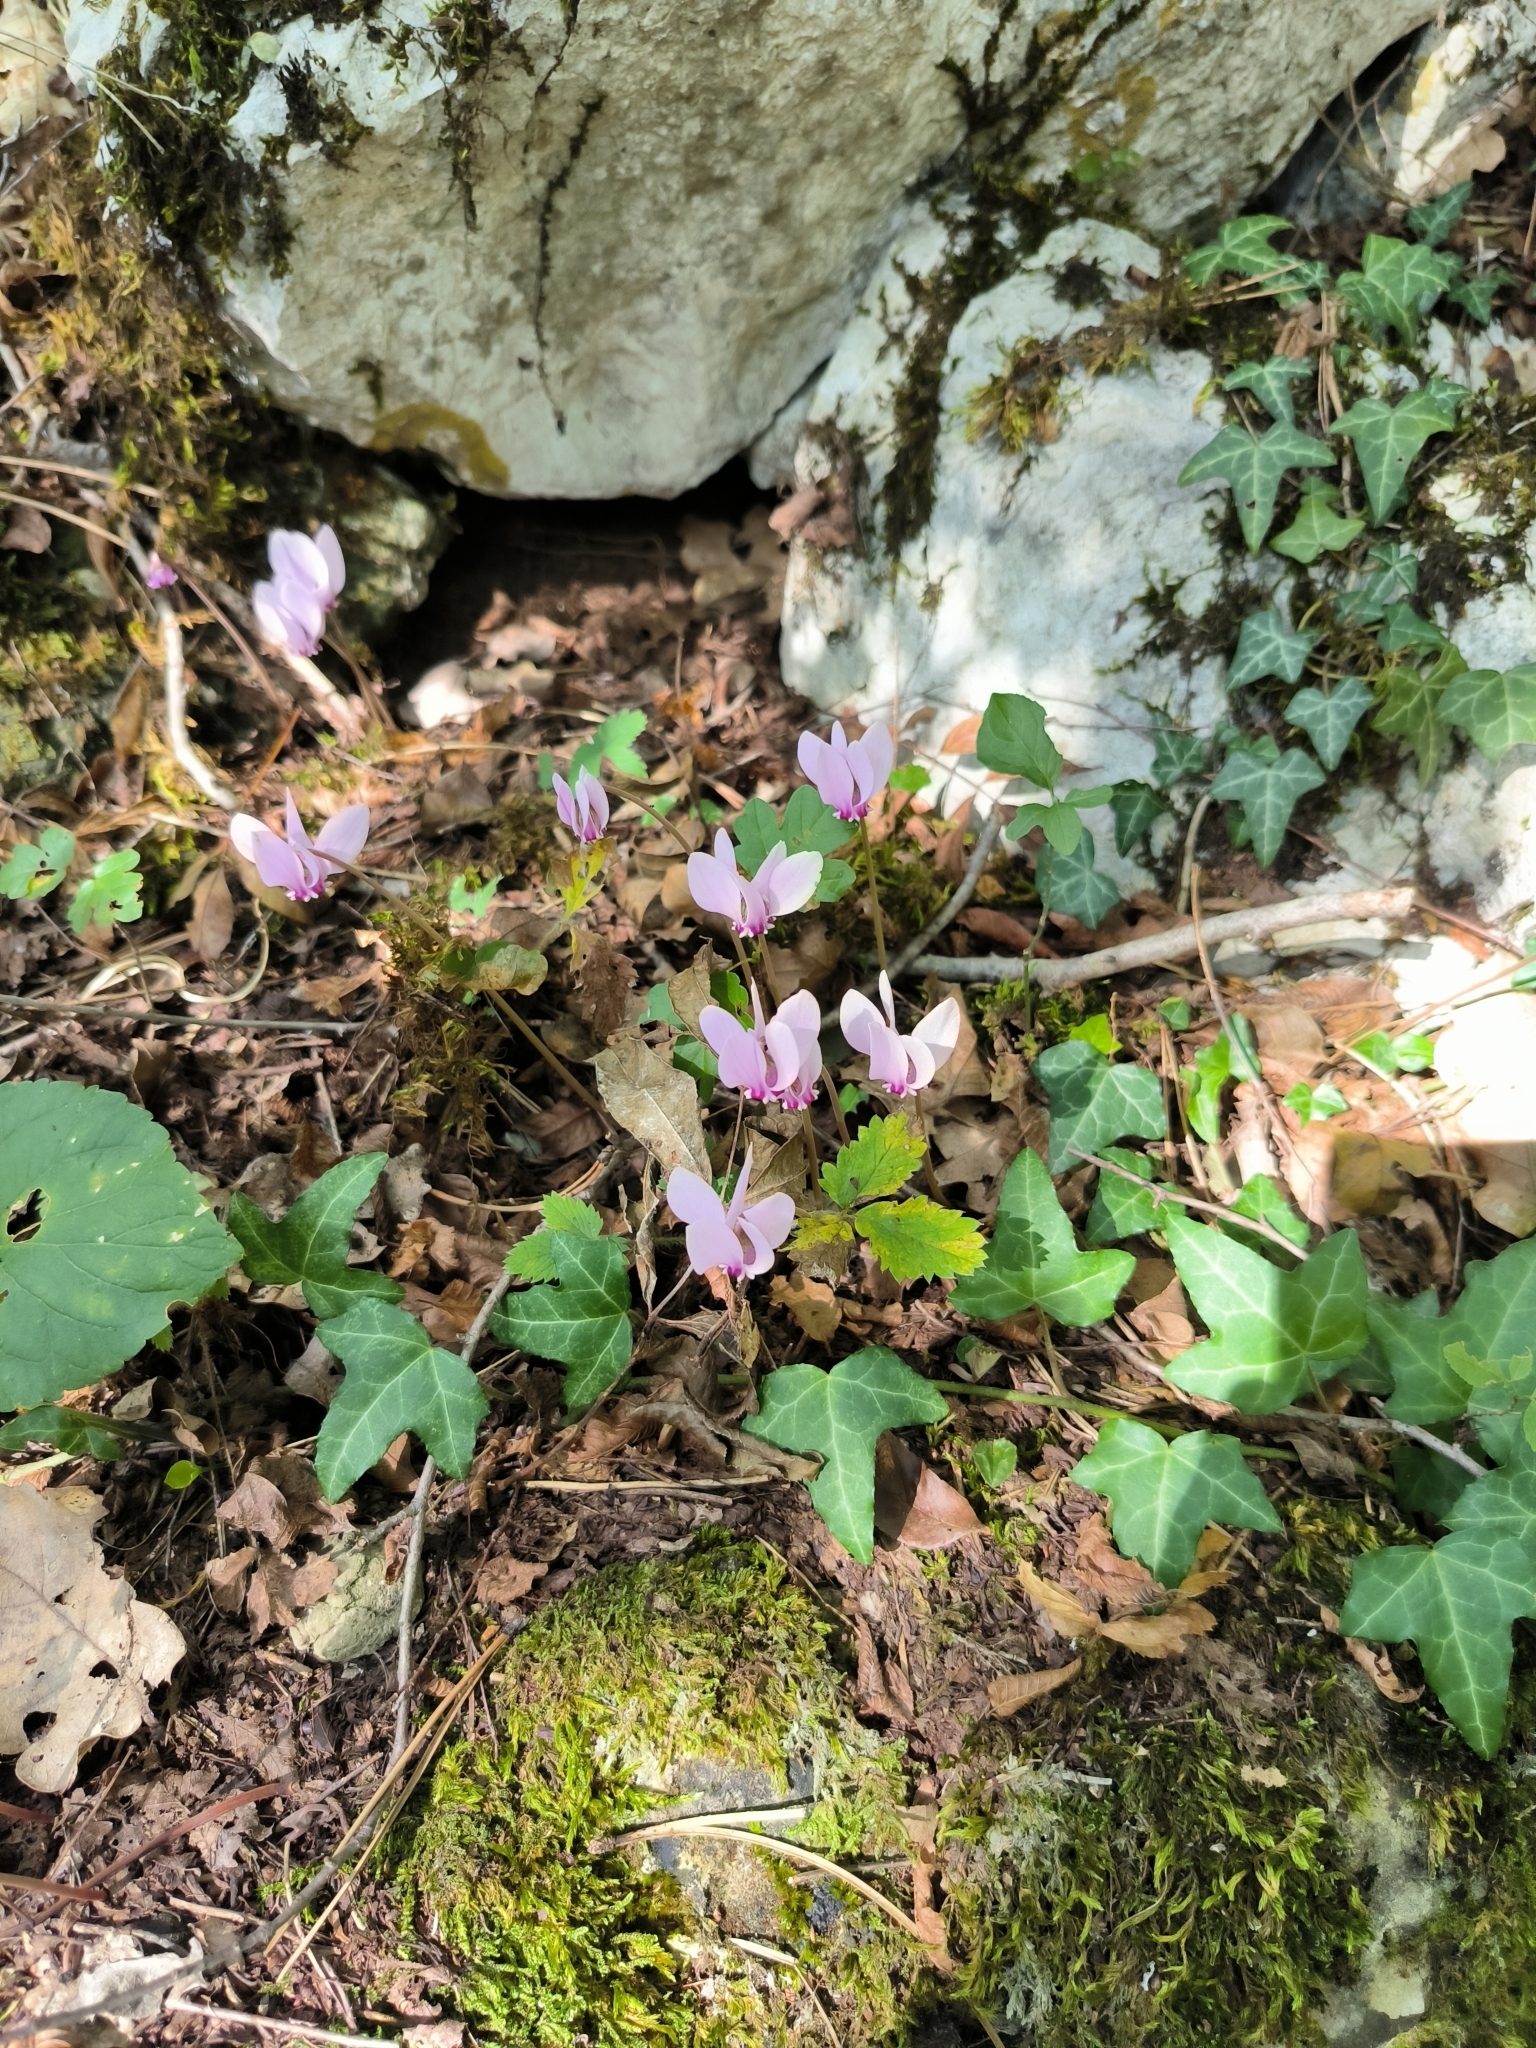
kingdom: Plantae
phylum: Tracheophyta
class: Magnoliopsida
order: Ericales
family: Primulaceae
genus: Cyclamen
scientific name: Cyclamen hederifolium
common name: Sowbread
